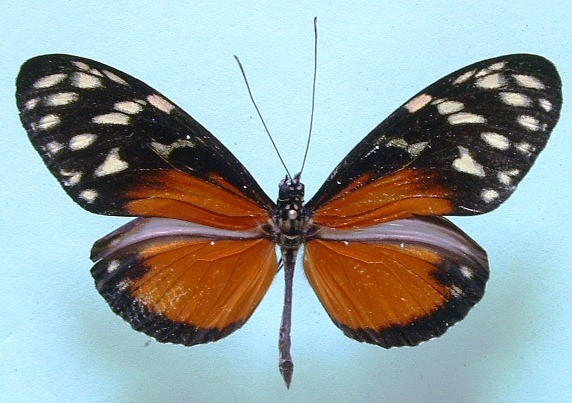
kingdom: Animalia
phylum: Arthropoda
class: Insecta
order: Lepidoptera
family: Nymphalidae
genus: Heliconius
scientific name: Heliconius hecale
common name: Tiger longwing
